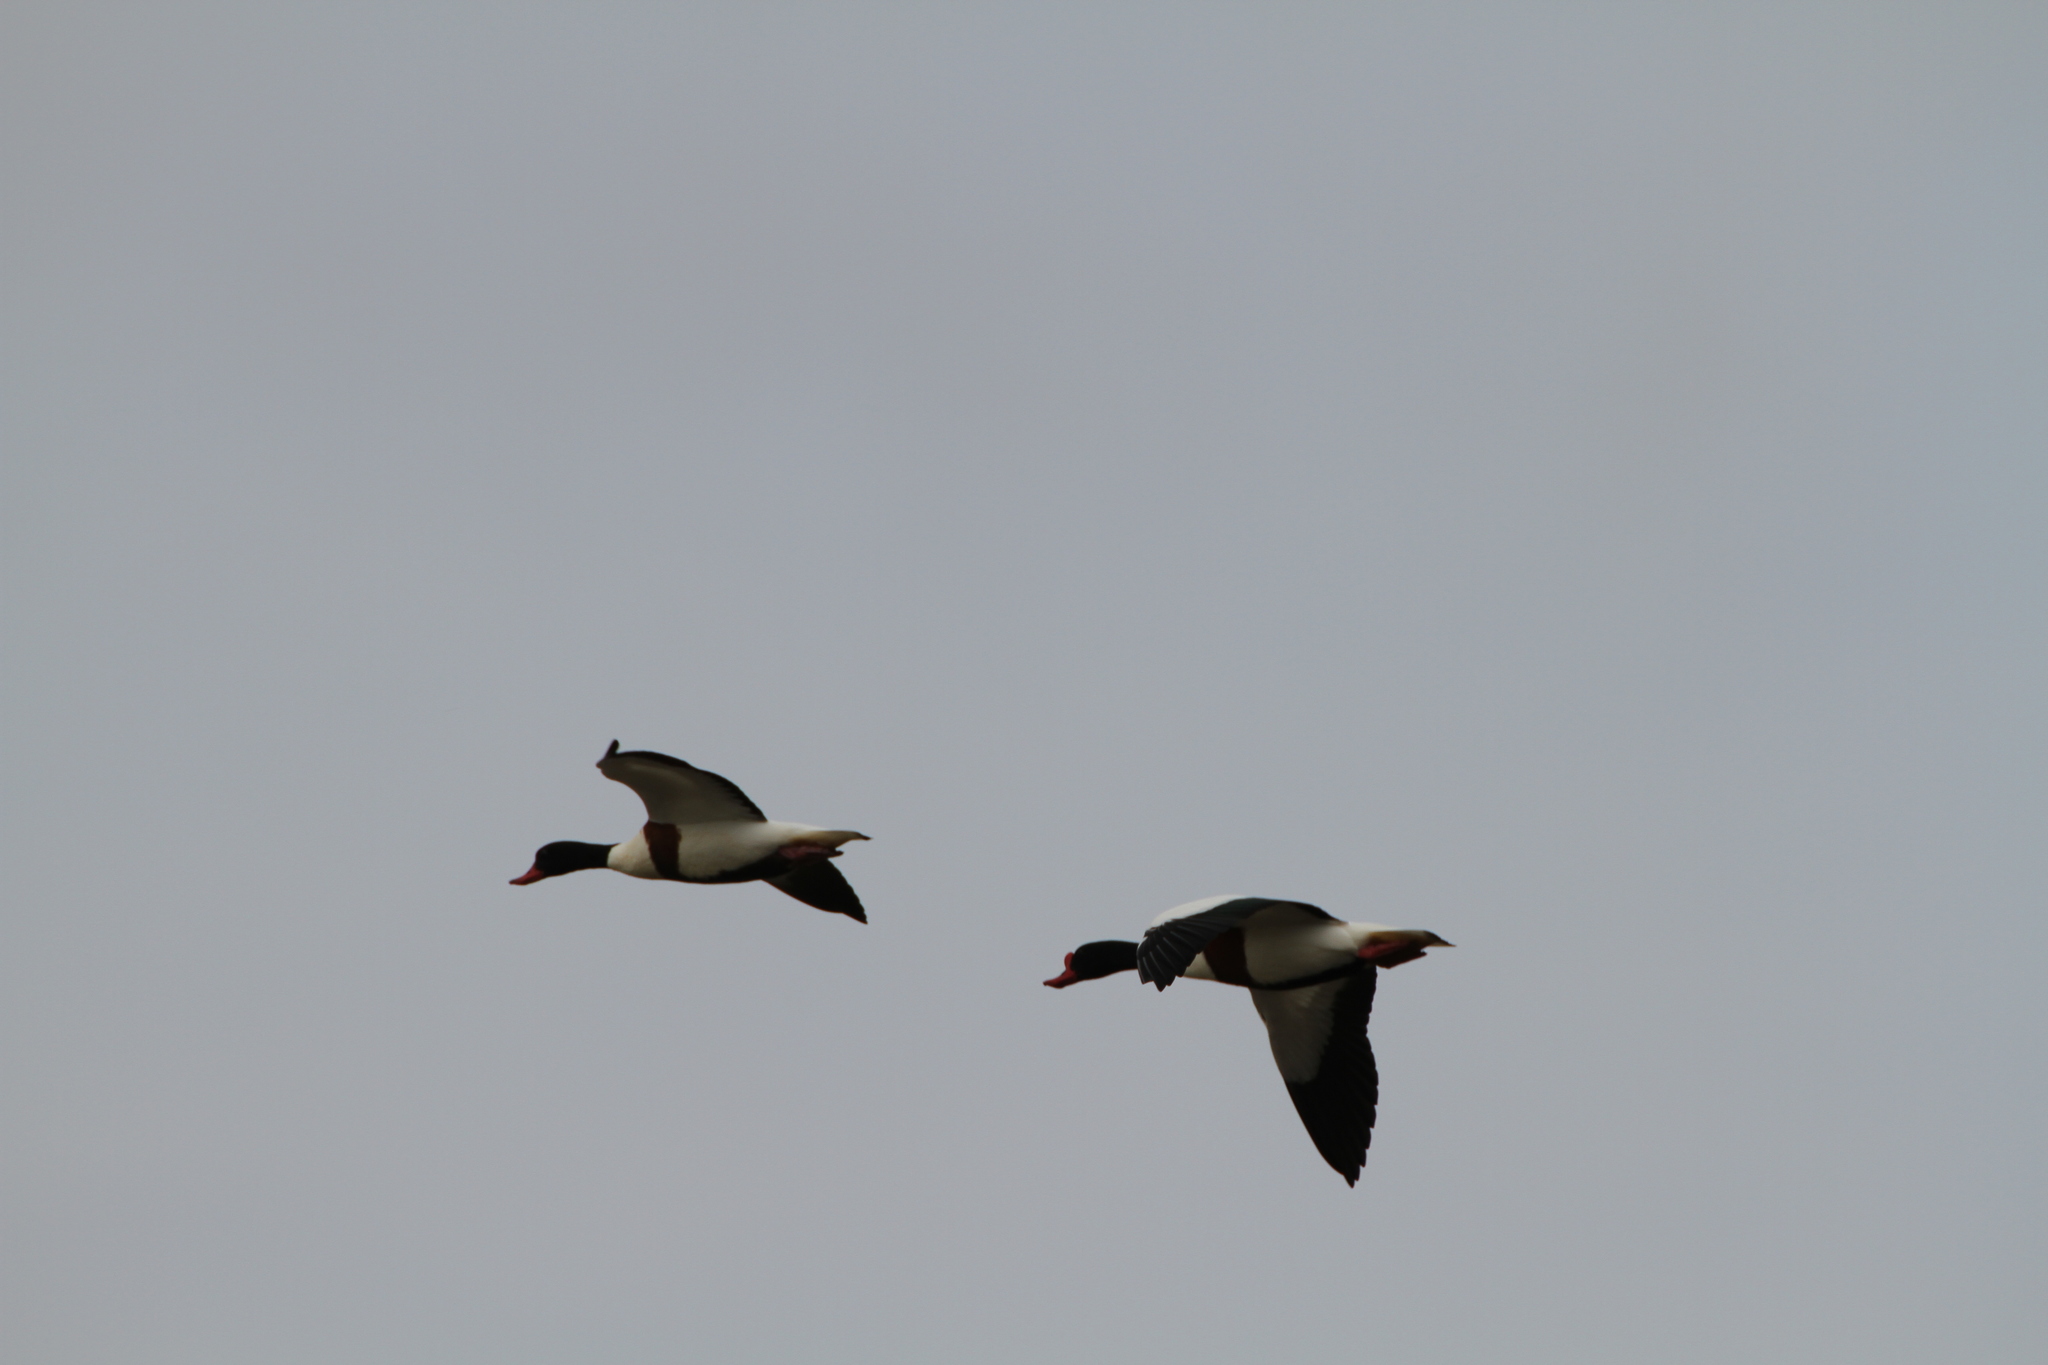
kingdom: Animalia
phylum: Chordata
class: Aves
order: Anseriformes
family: Anatidae
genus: Tadorna
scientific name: Tadorna tadorna
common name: Common shelduck
